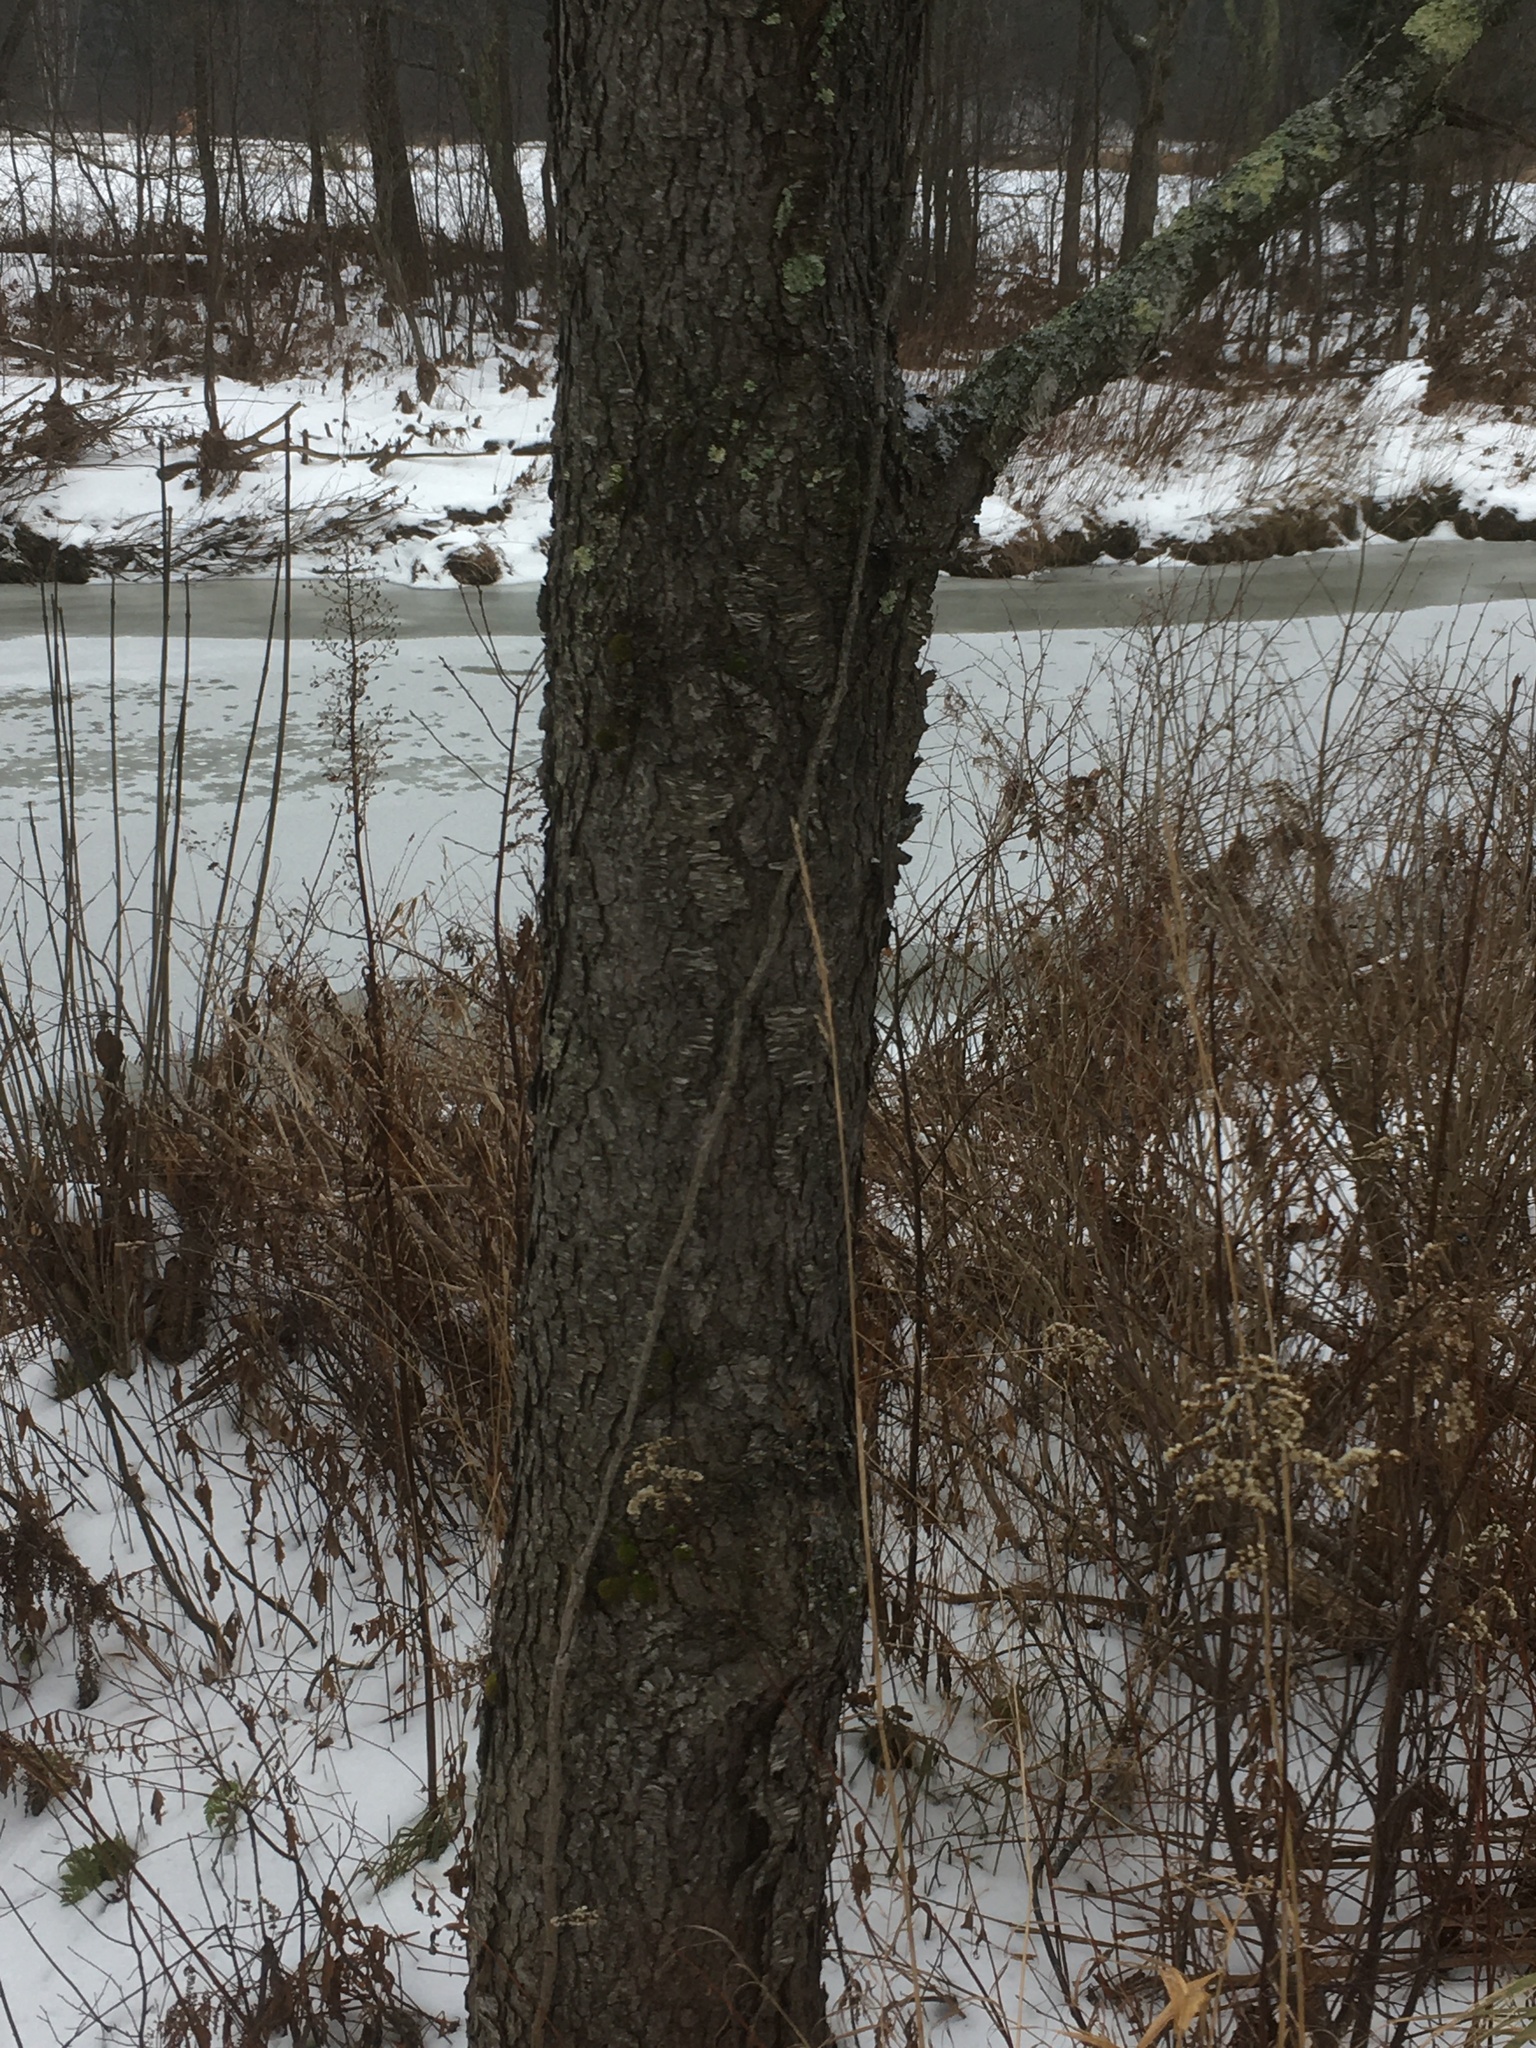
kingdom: Plantae
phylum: Tracheophyta
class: Magnoliopsida
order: Rosales
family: Rosaceae
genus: Prunus
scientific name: Prunus serotina
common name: Black cherry
